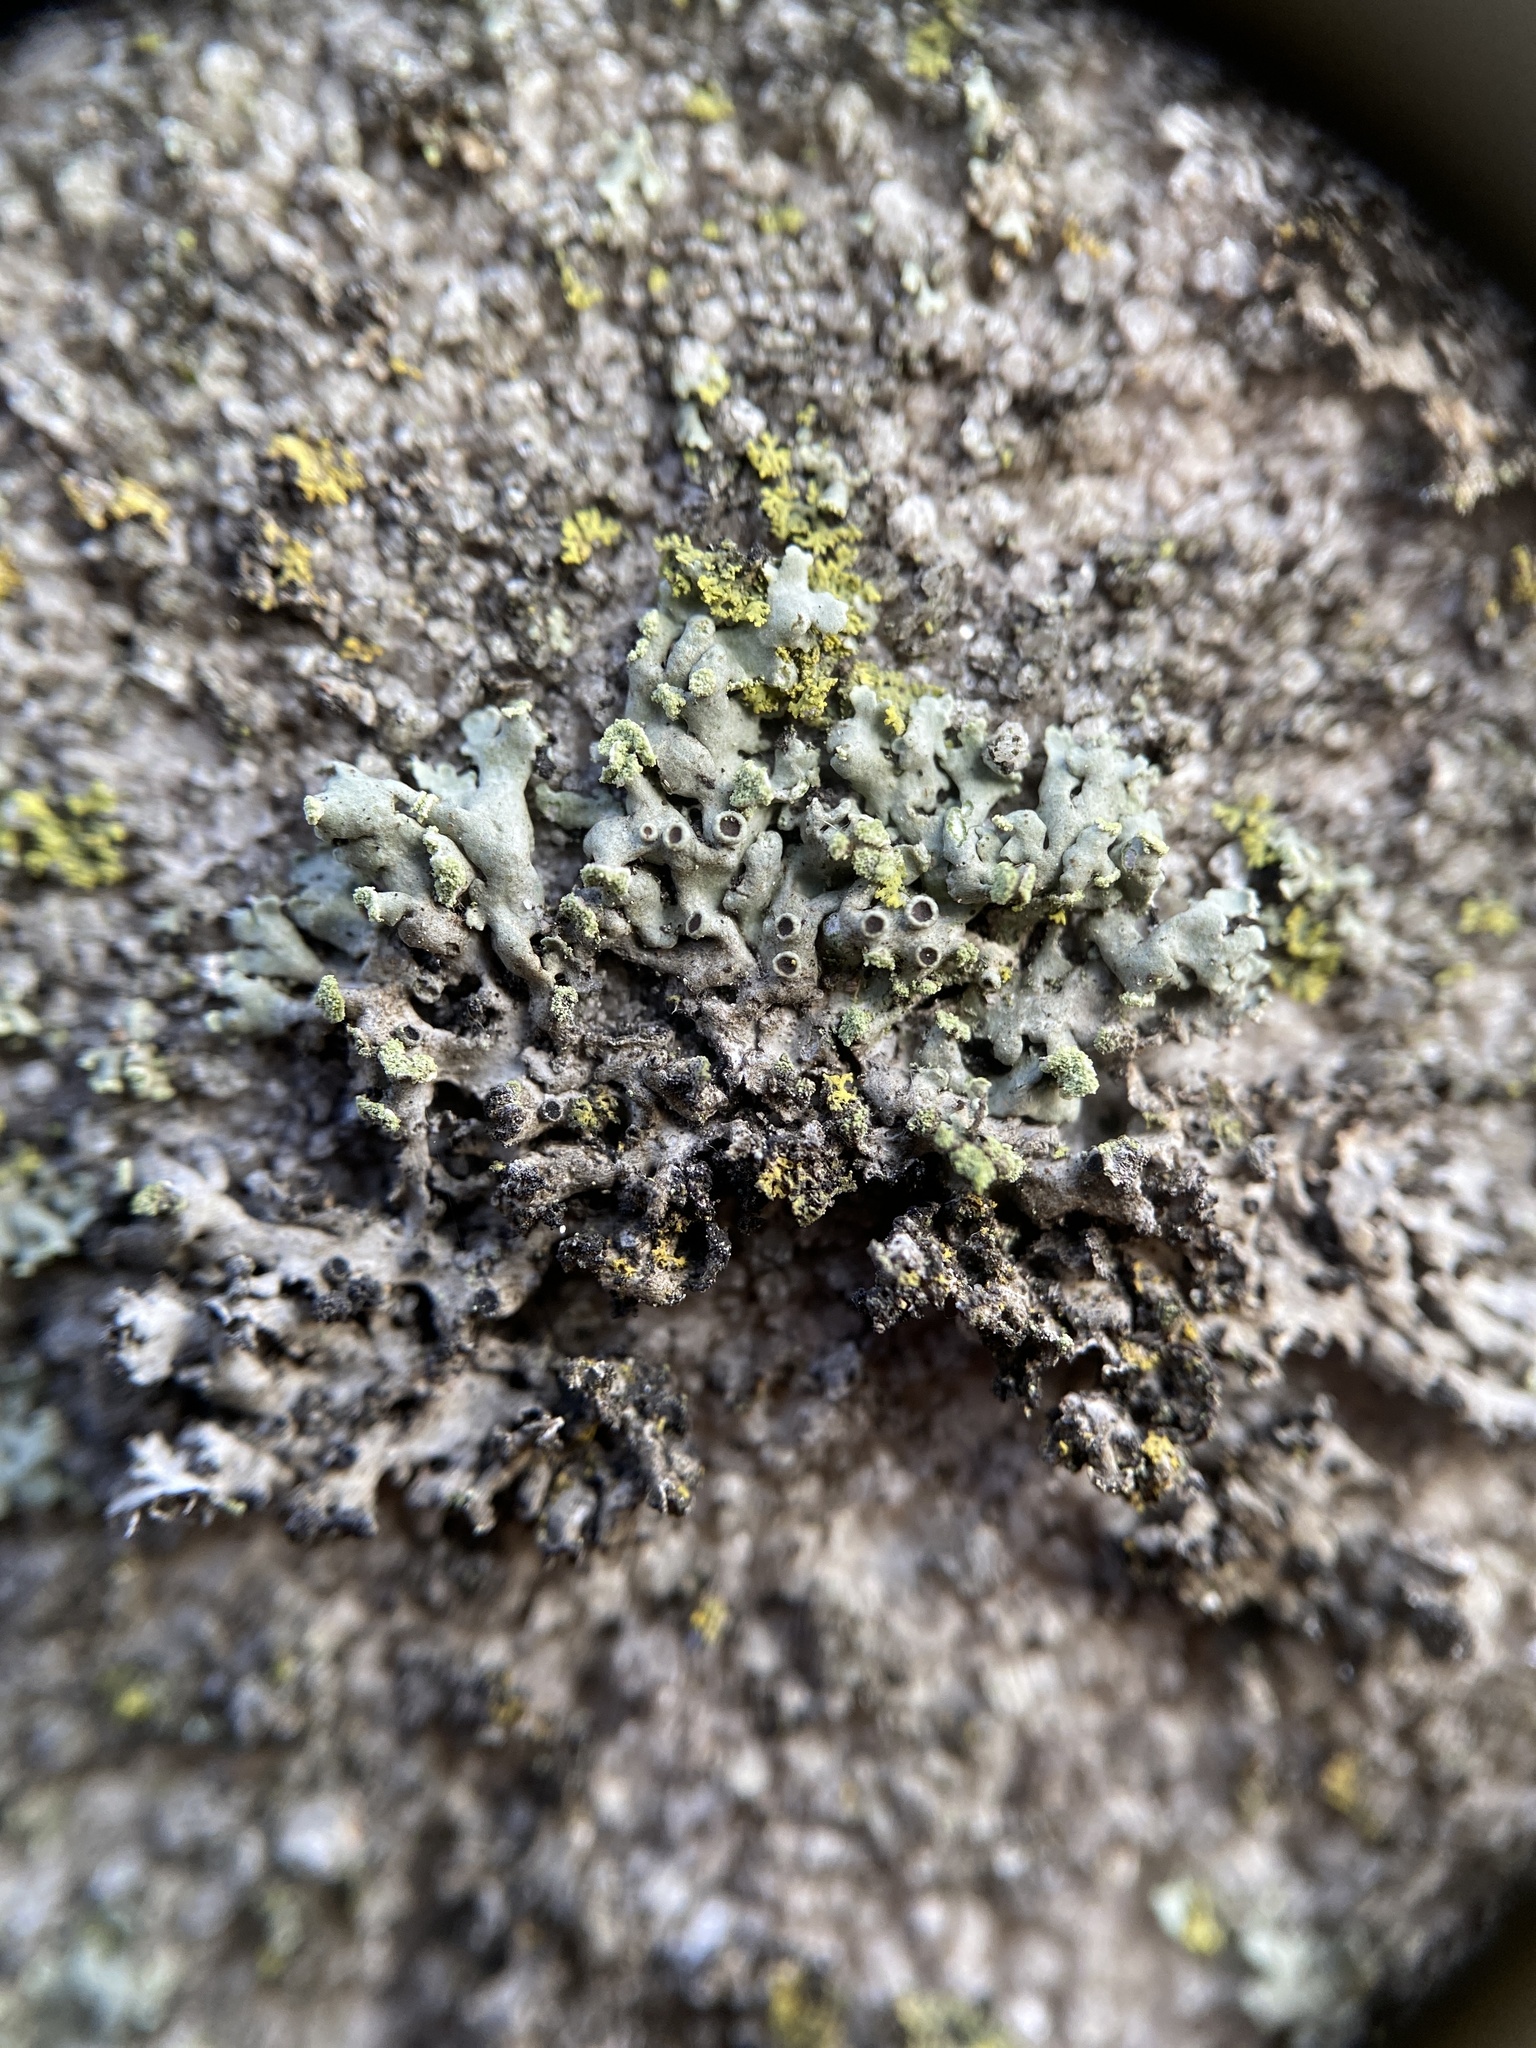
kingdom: Fungi
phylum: Ascomycota
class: Lecanoromycetes
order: Caliciales
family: Physciaceae
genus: Physciella
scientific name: Physciella chloantha
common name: Cryptic rosette lichen
